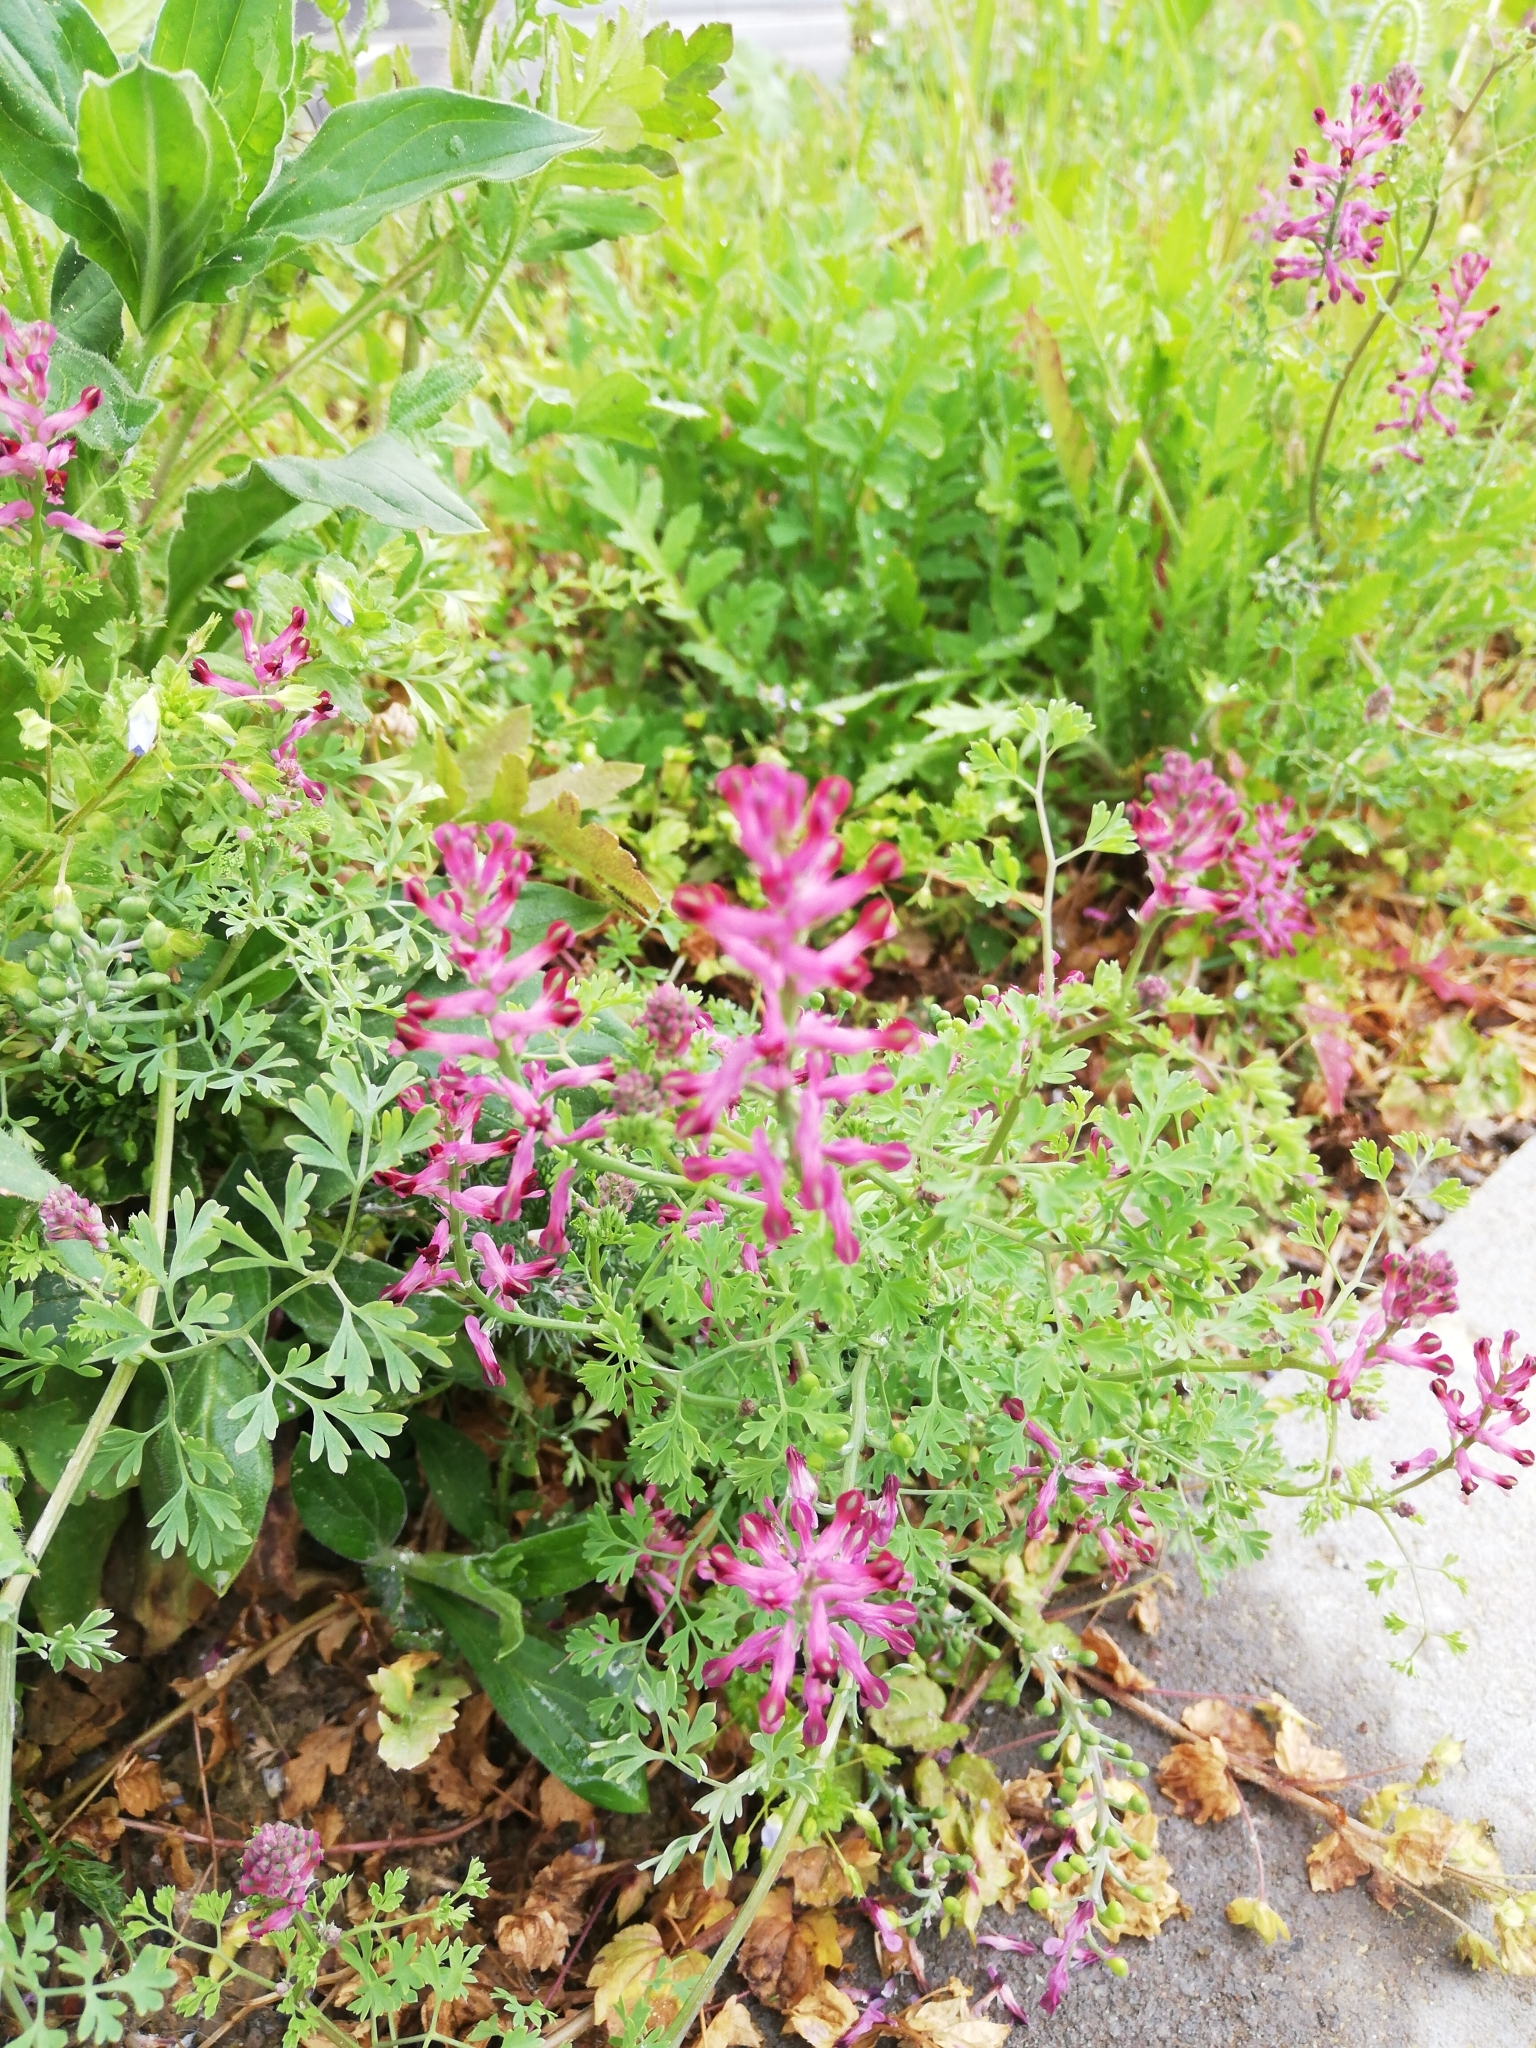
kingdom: Plantae
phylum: Tracheophyta
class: Magnoliopsida
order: Ranunculales
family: Papaveraceae
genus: Fumaria
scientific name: Fumaria officinalis
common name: Common fumitory
